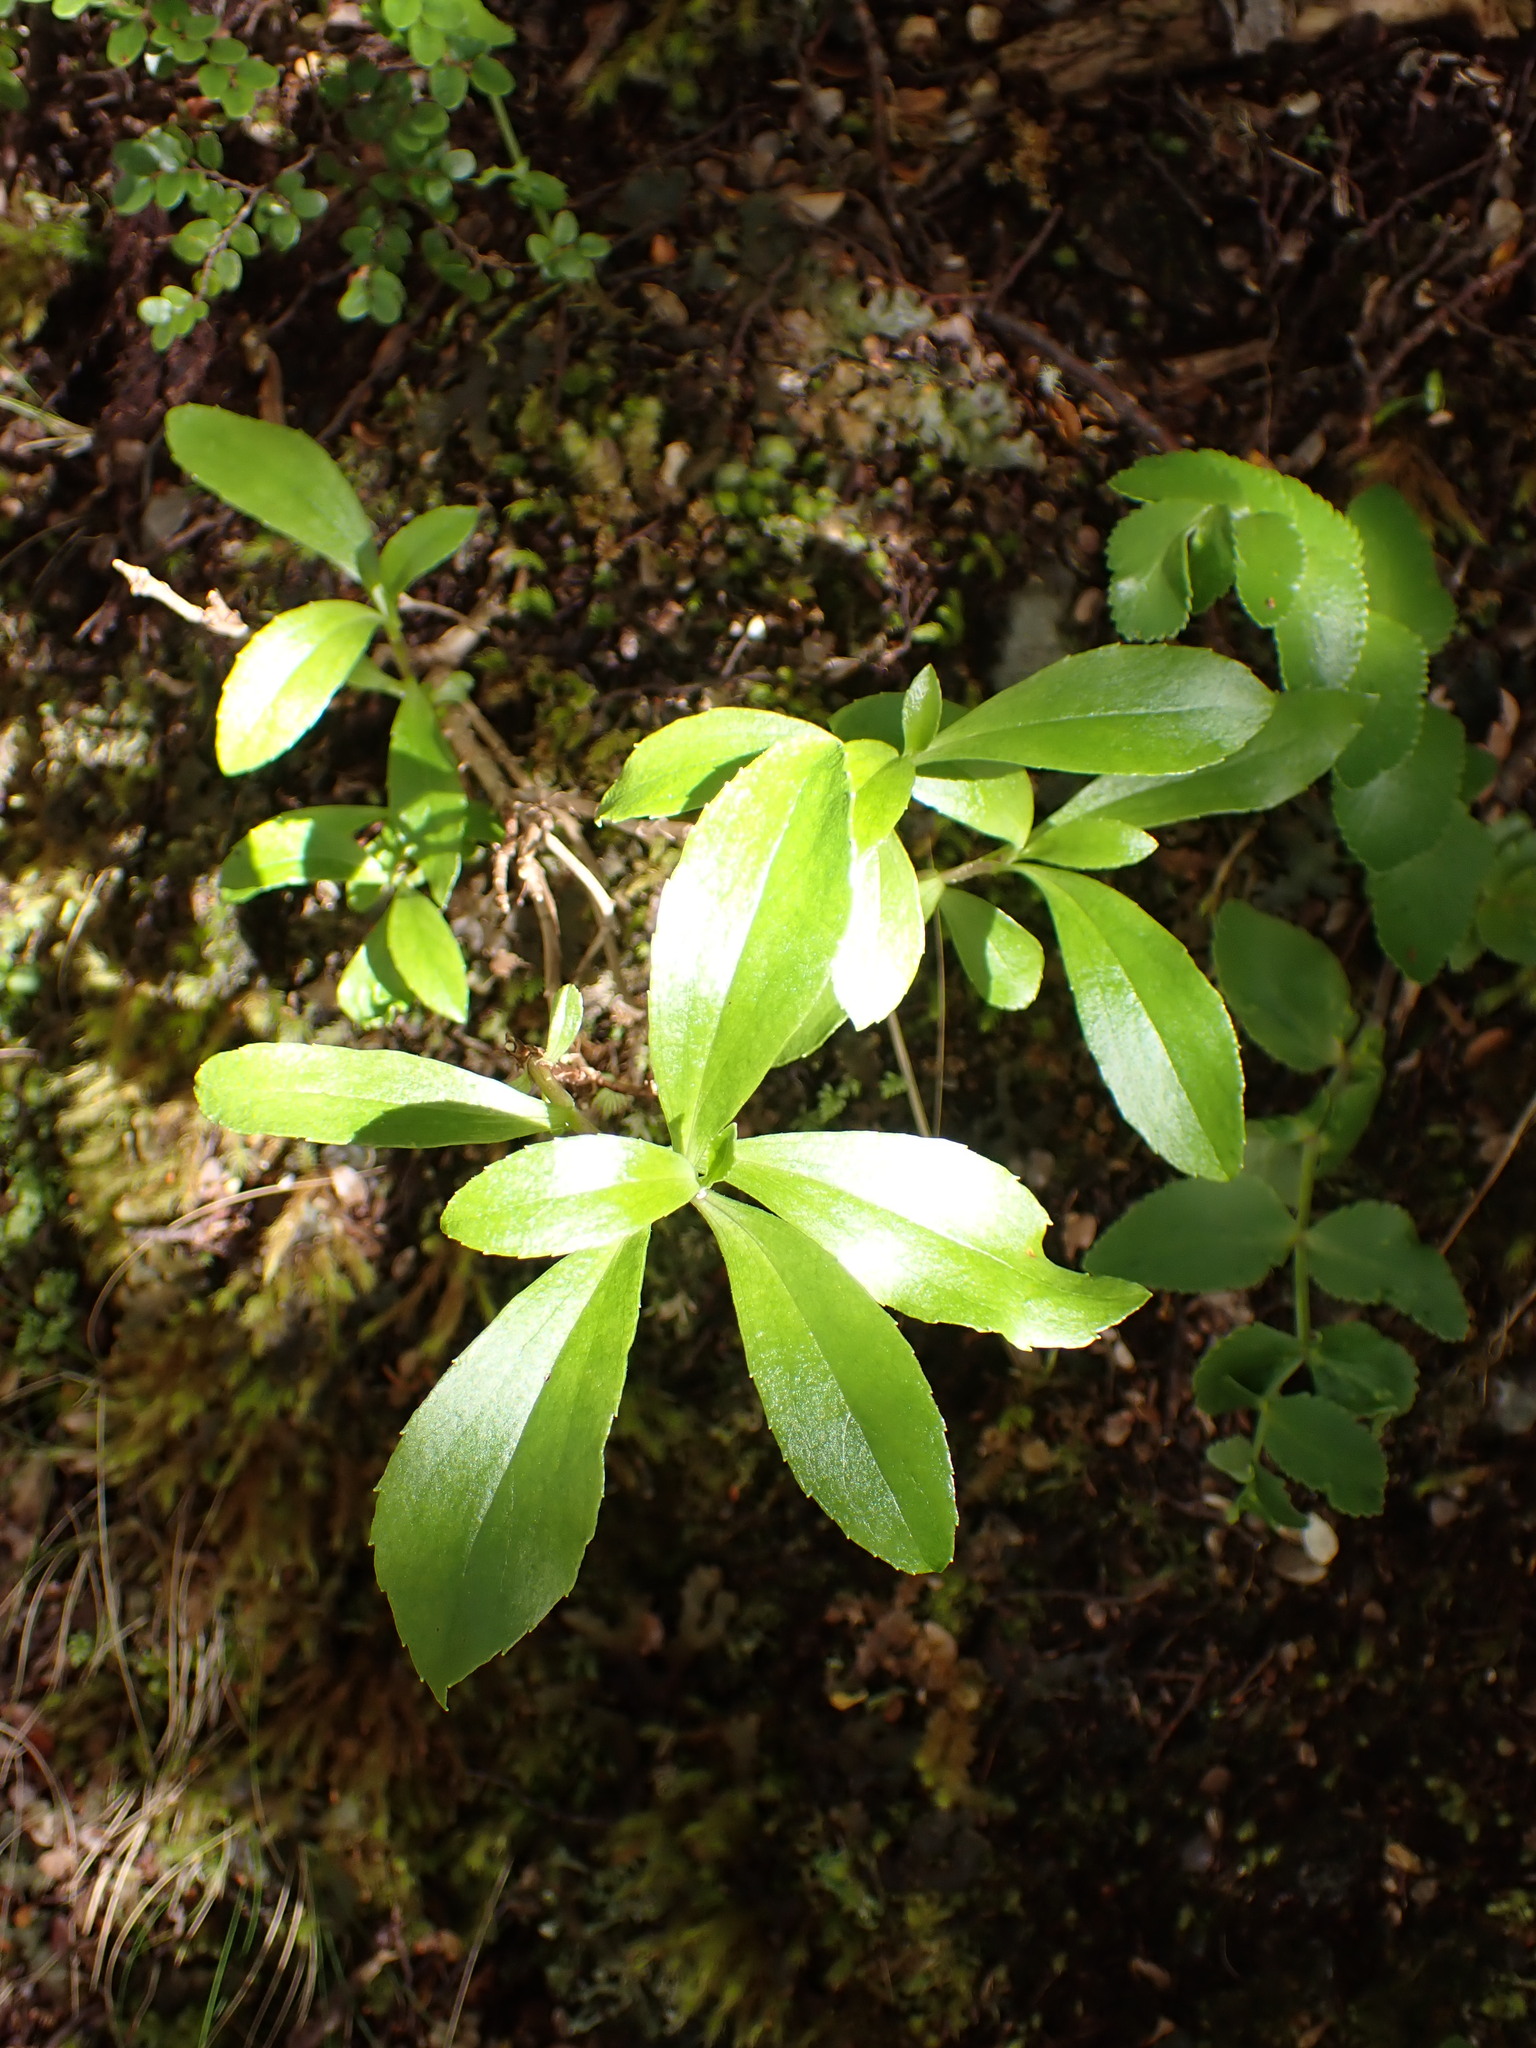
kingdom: Plantae
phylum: Tracheophyta
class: Magnoliopsida
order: Asterales
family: Asteraceae
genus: Traversia
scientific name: Traversia baccharoides
